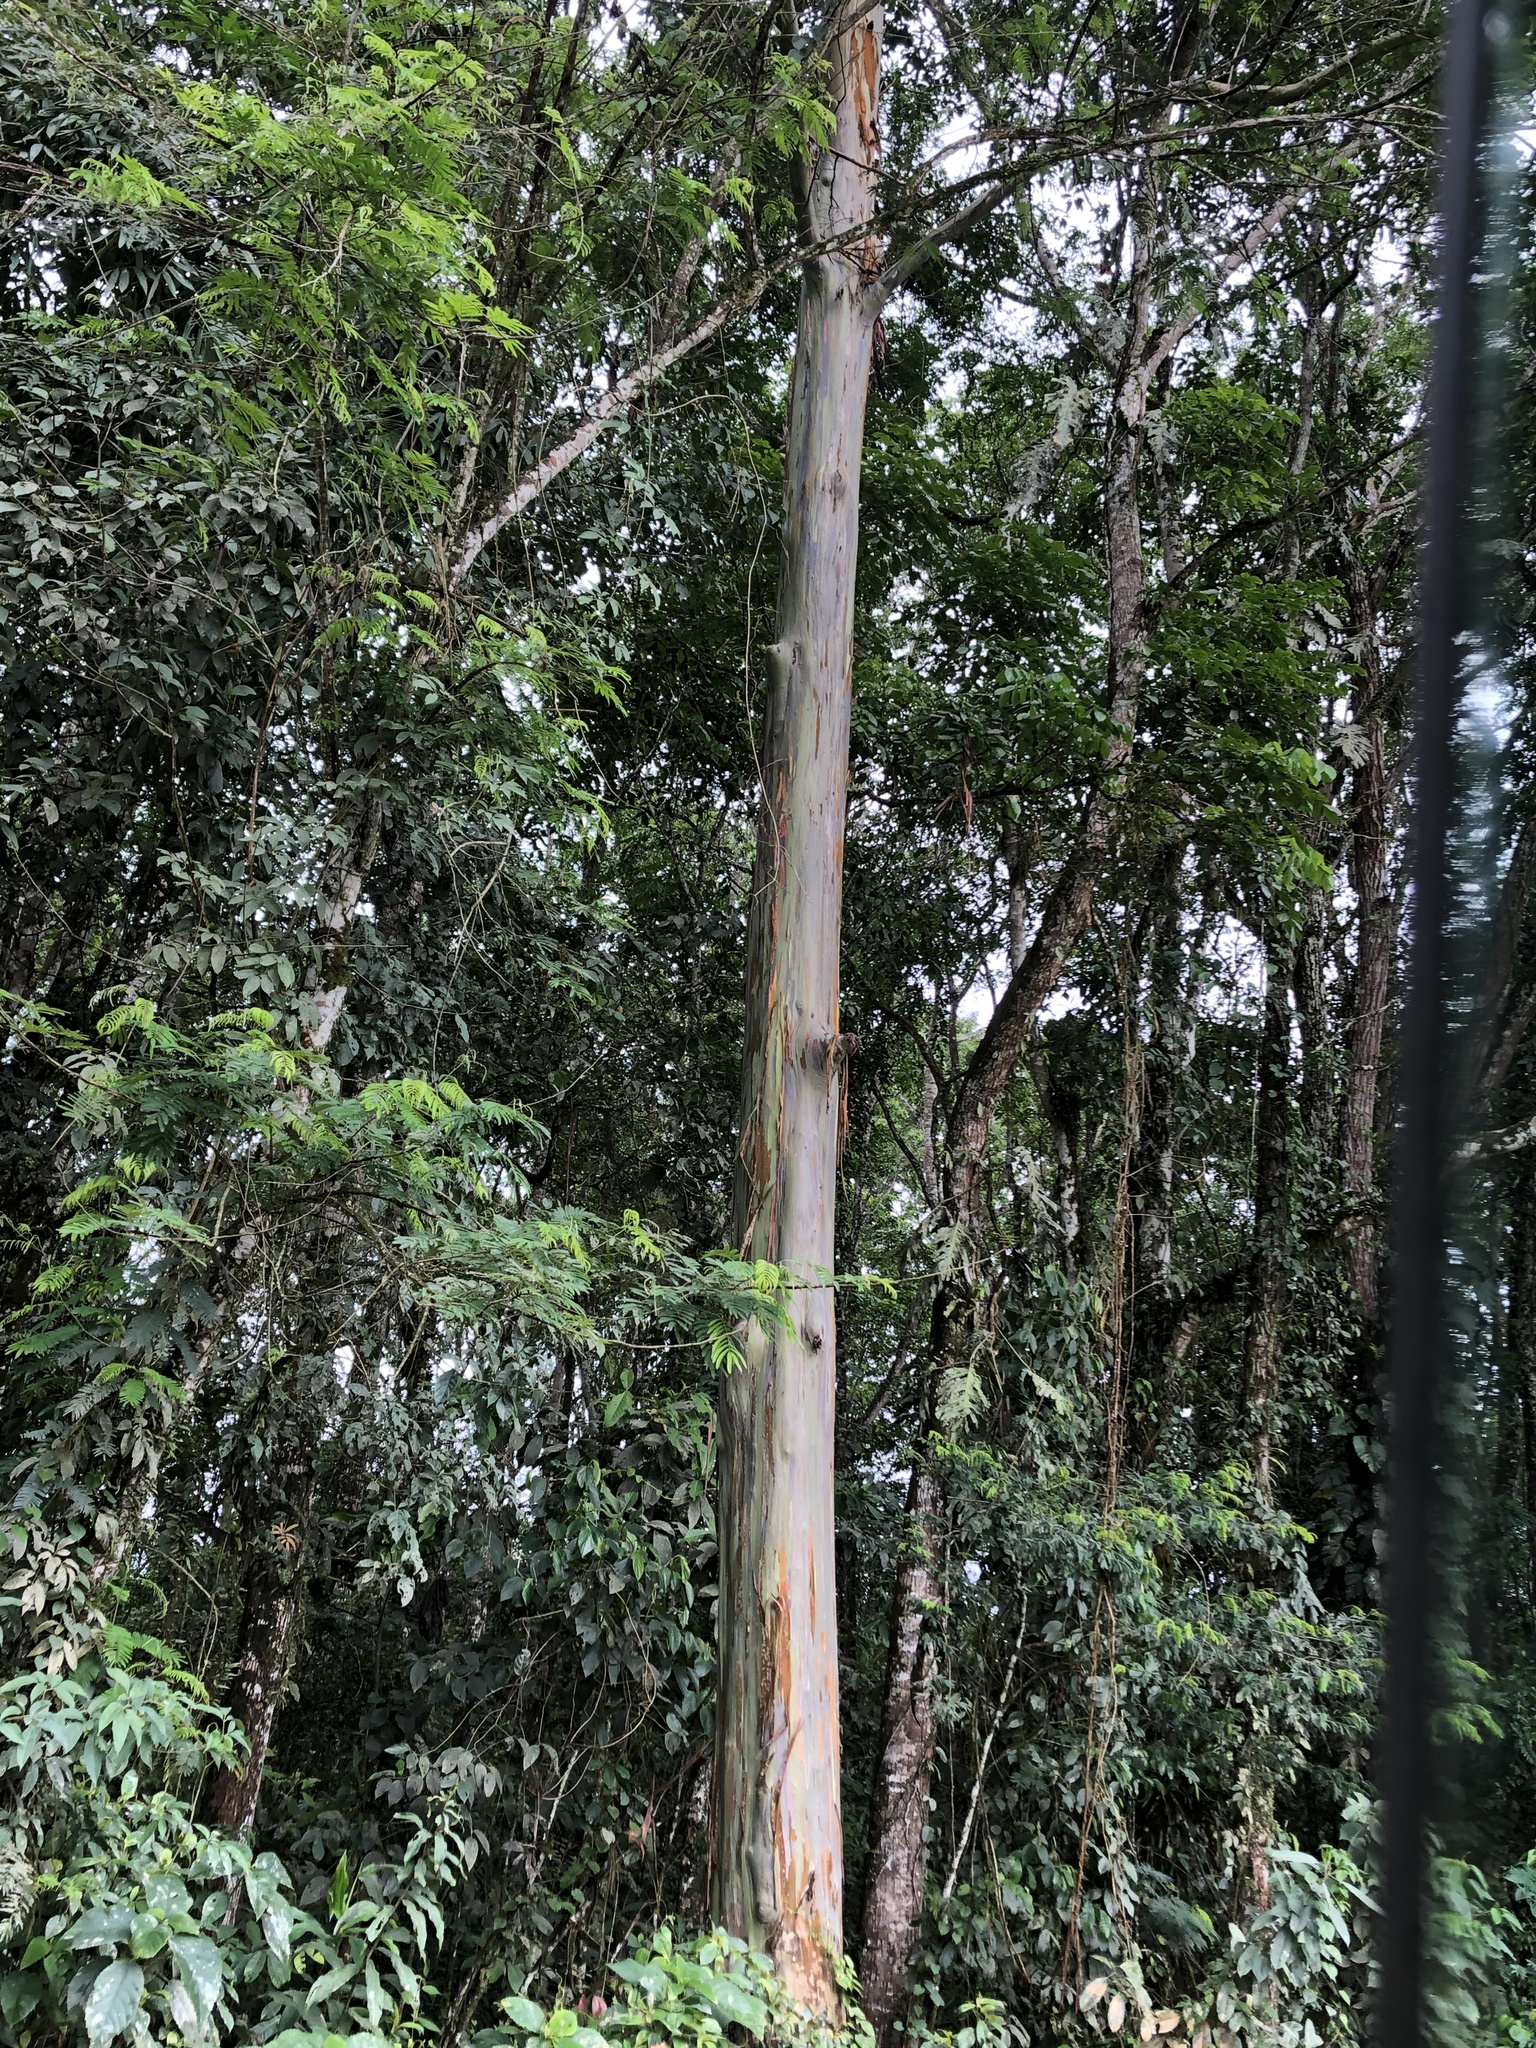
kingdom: Plantae
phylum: Tracheophyta
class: Magnoliopsida
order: Myrtales
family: Myrtaceae
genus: Eucalyptus
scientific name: Eucalyptus deglupta
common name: Mindanao gum
